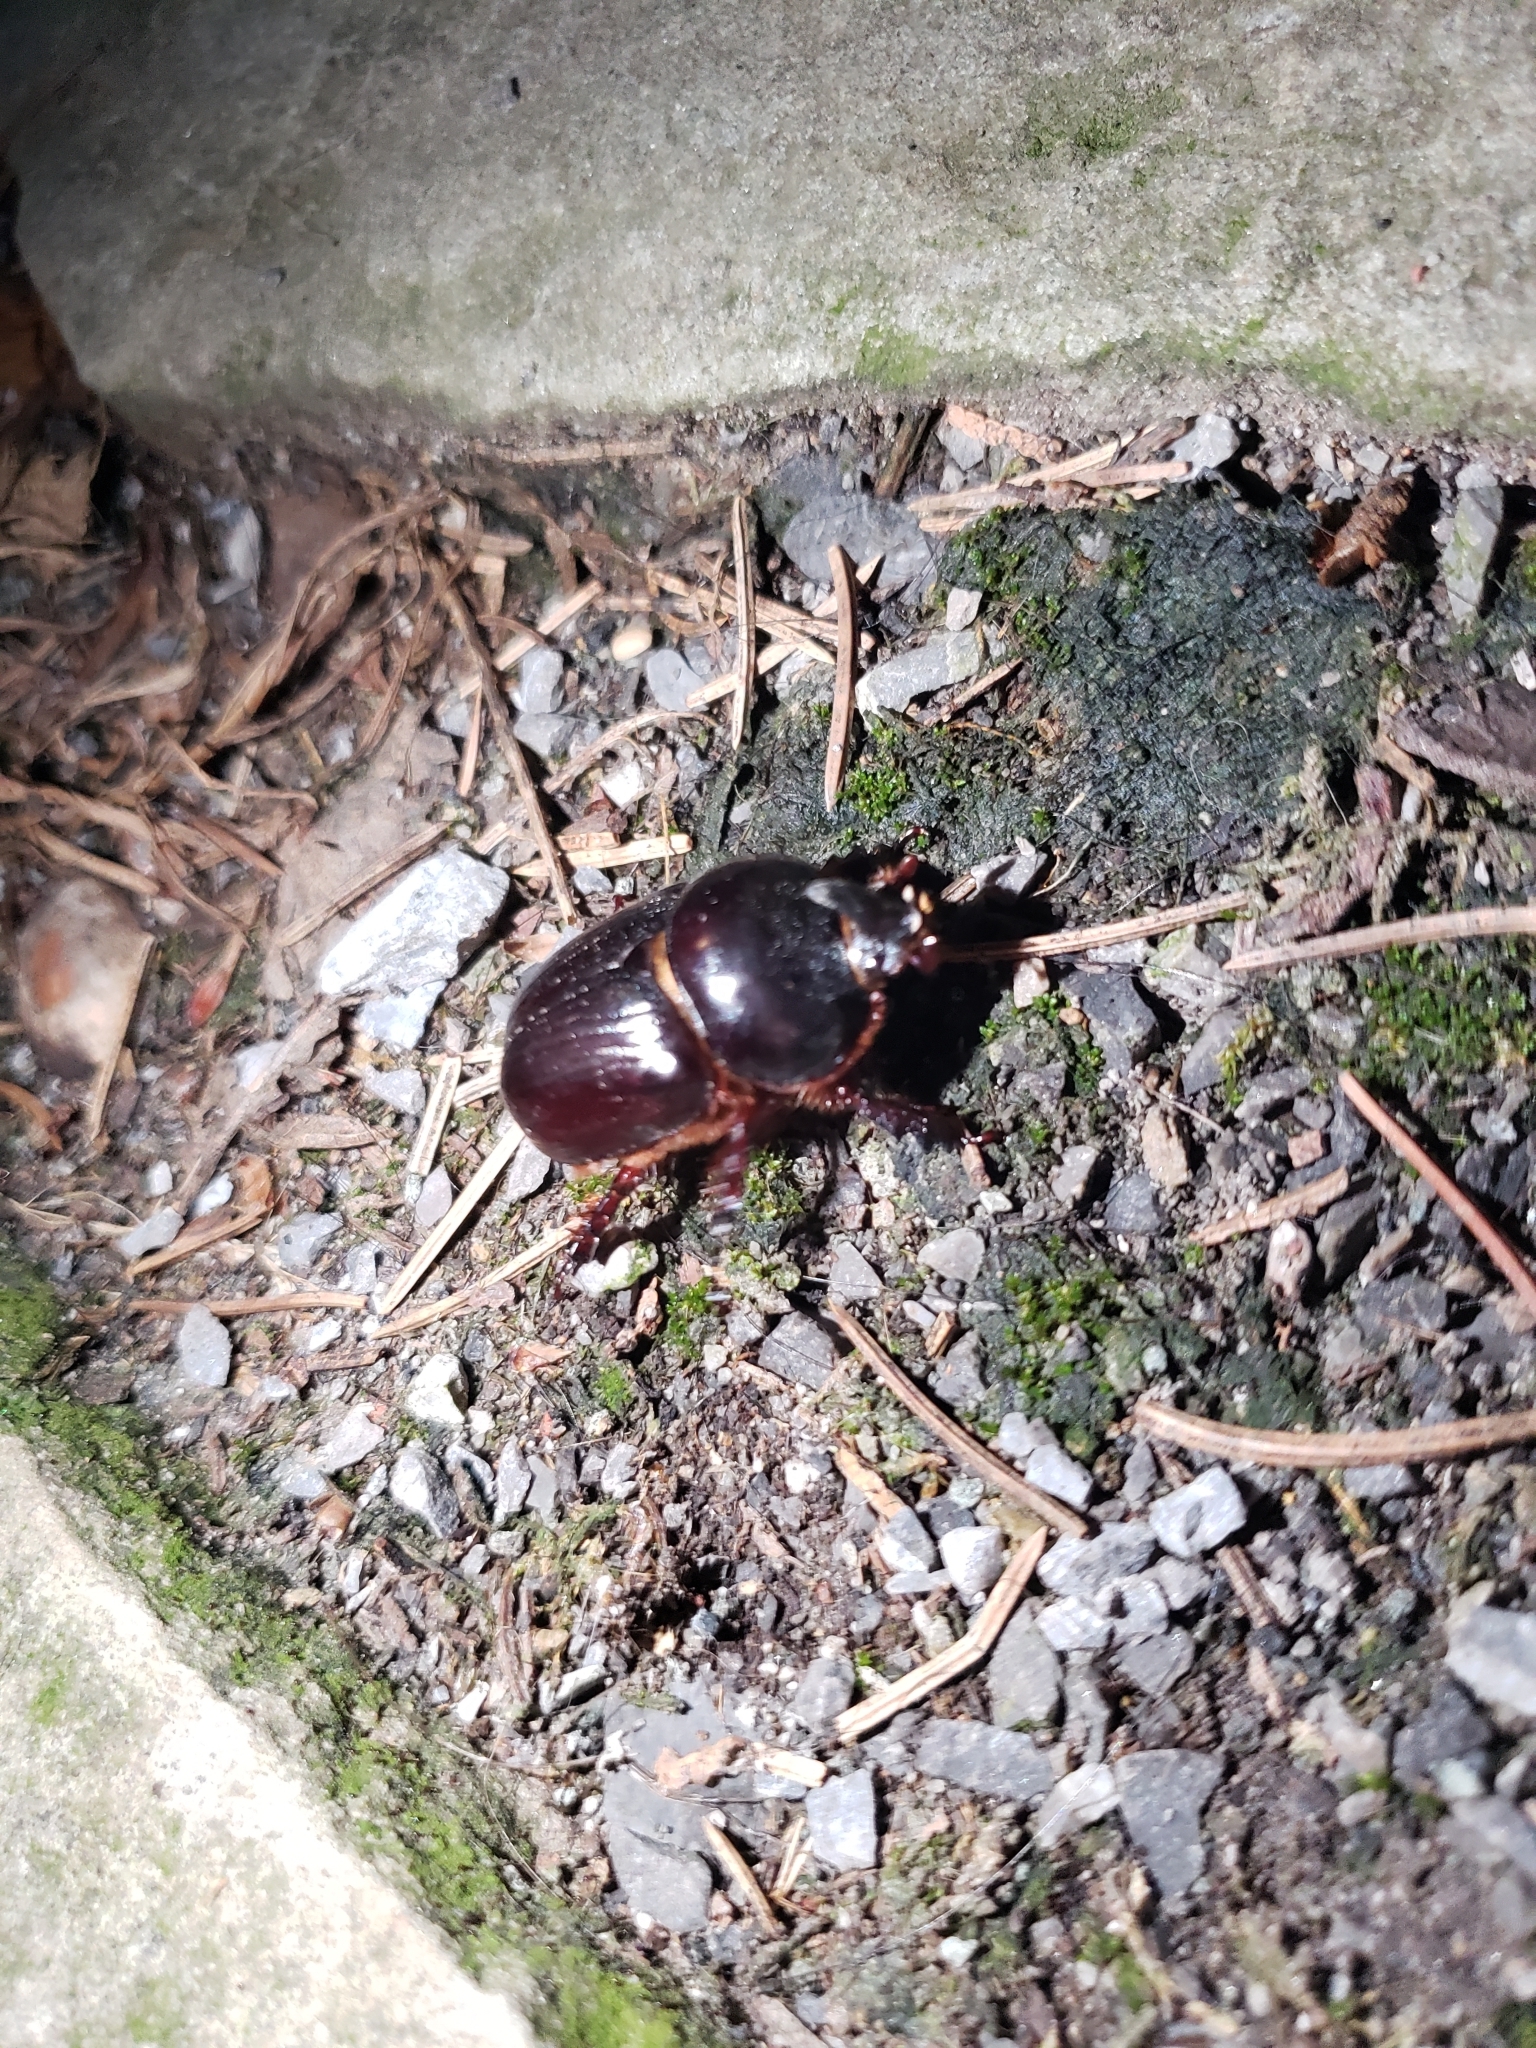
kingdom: Animalia
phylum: Arthropoda
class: Insecta
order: Coleoptera
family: Scarabaeidae
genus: Xyloryctes
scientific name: Xyloryctes jamaicensis
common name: Eastern rhinoceros beetle
